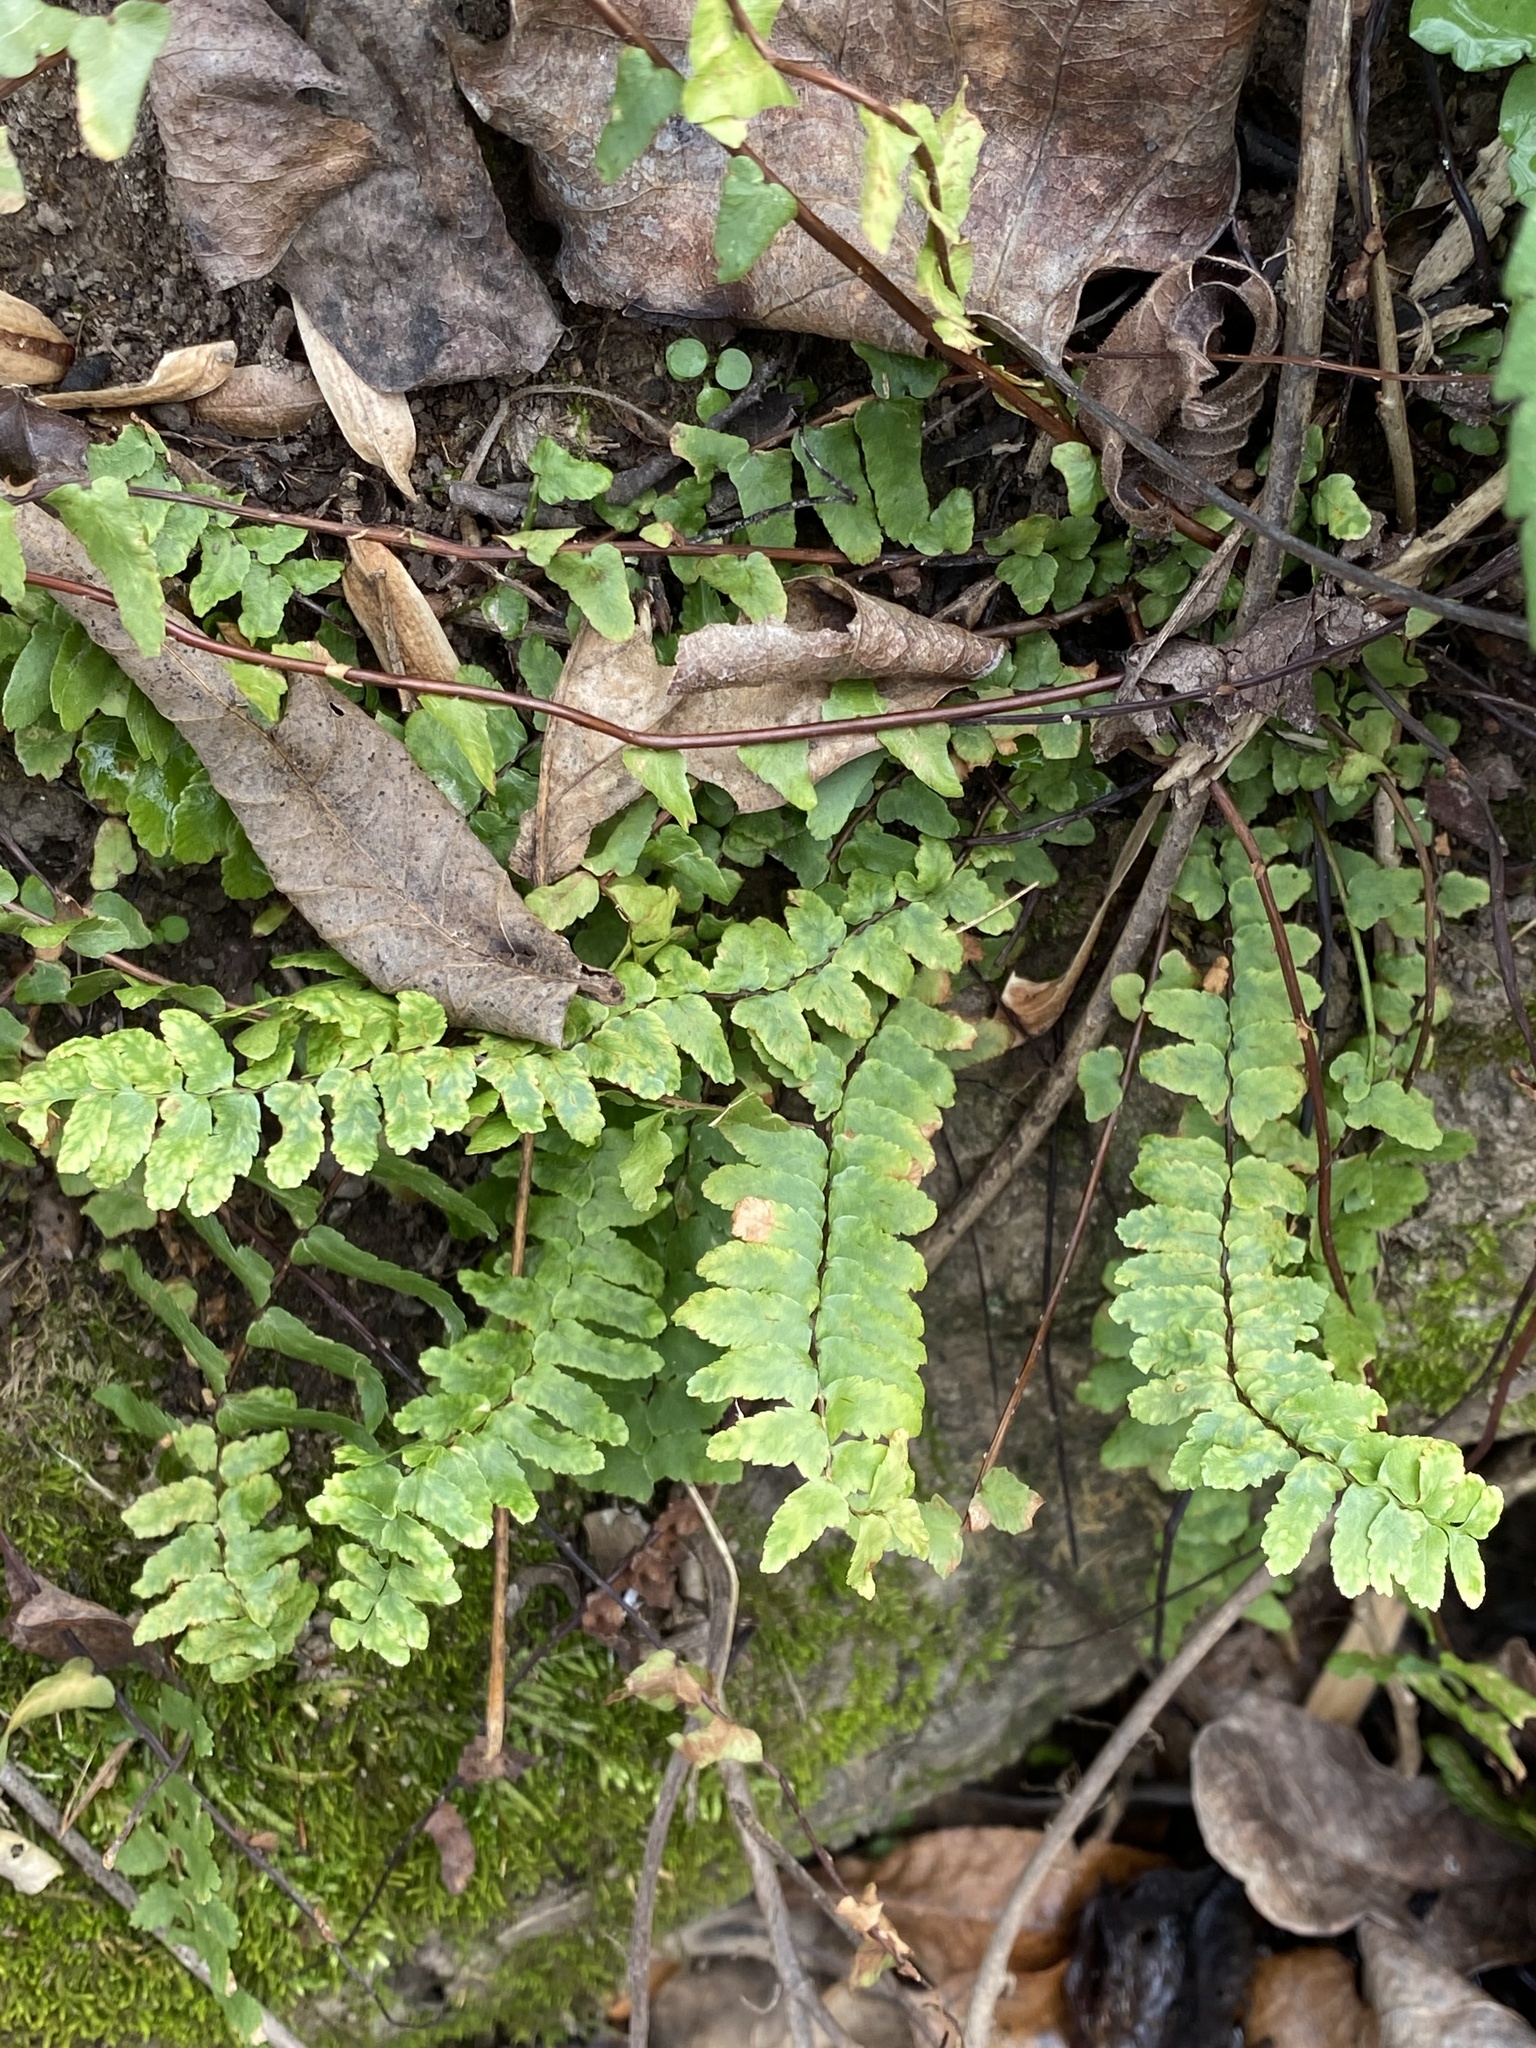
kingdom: Plantae
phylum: Tracheophyta
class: Polypodiopsida
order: Polypodiales
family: Aspleniaceae
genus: Asplenium
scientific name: Asplenium platyneuron
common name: Ebony spleenwort
